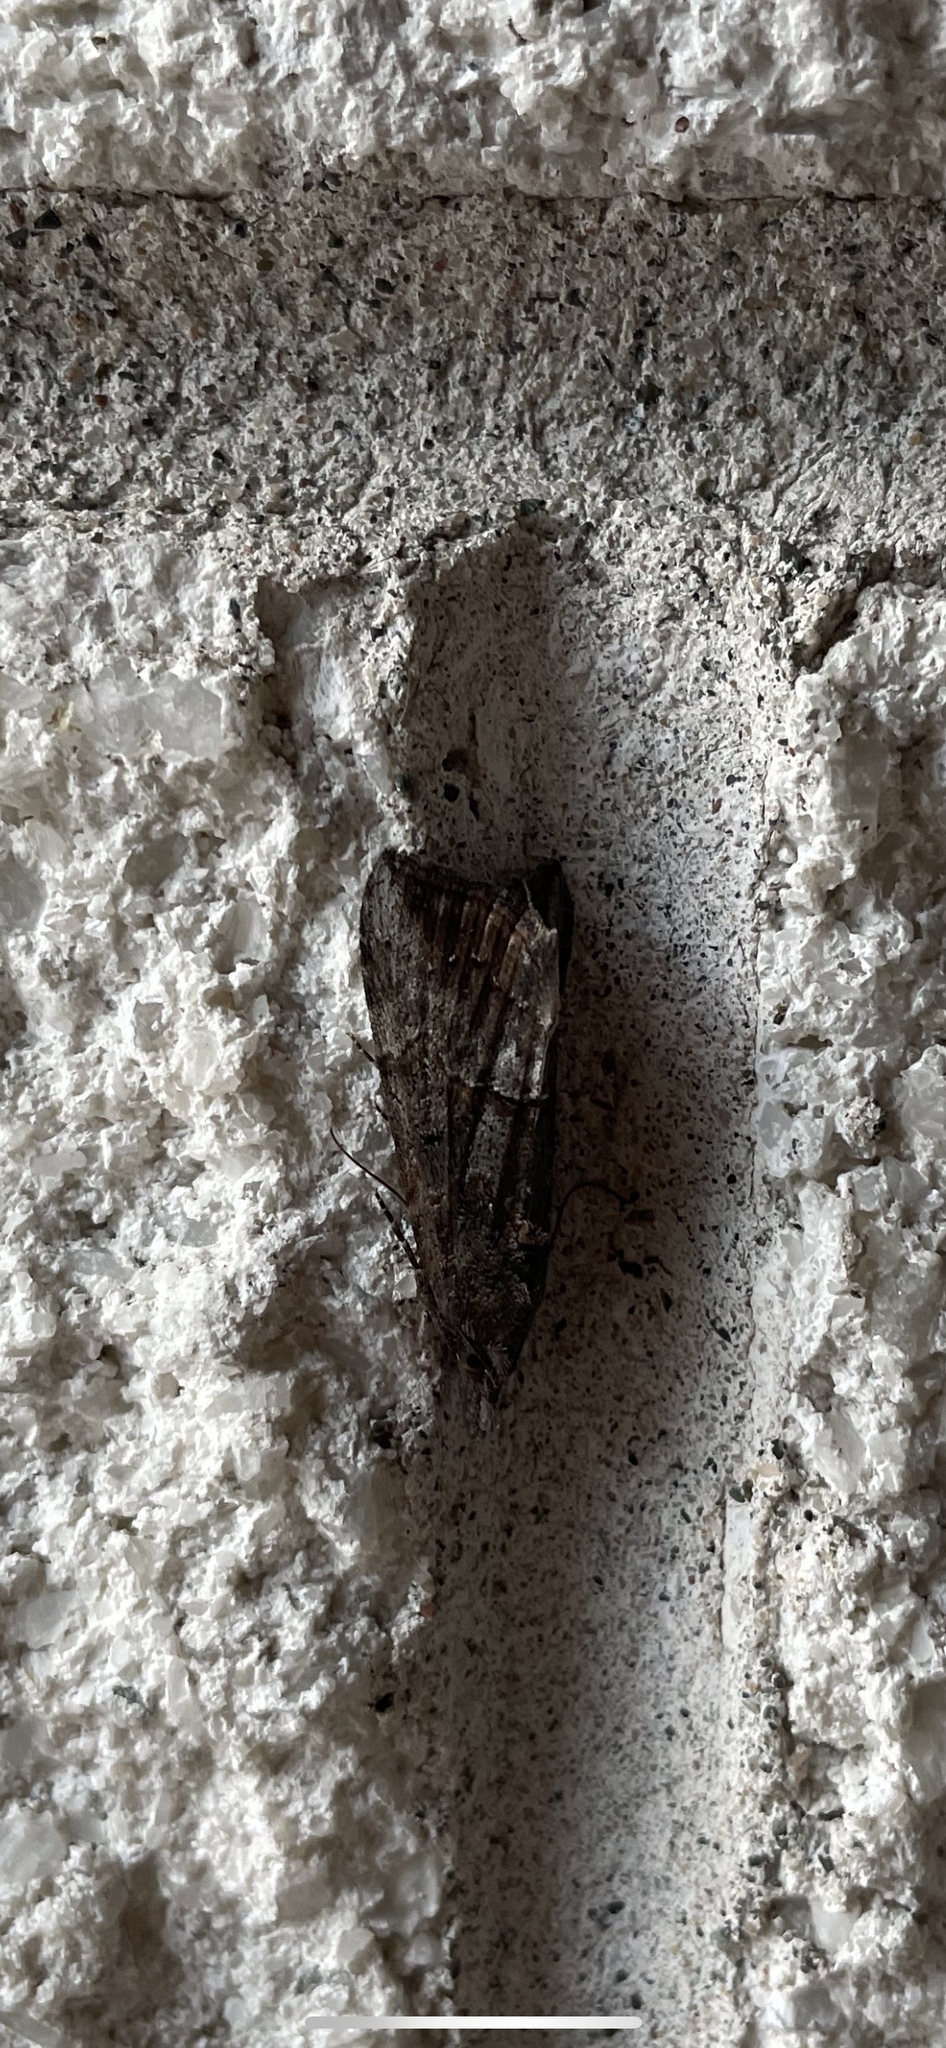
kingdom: Animalia
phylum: Arthropoda
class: Insecta
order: Lepidoptera
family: Erebidae
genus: Hypena
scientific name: Hypena scabra
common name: Green cloverworm
